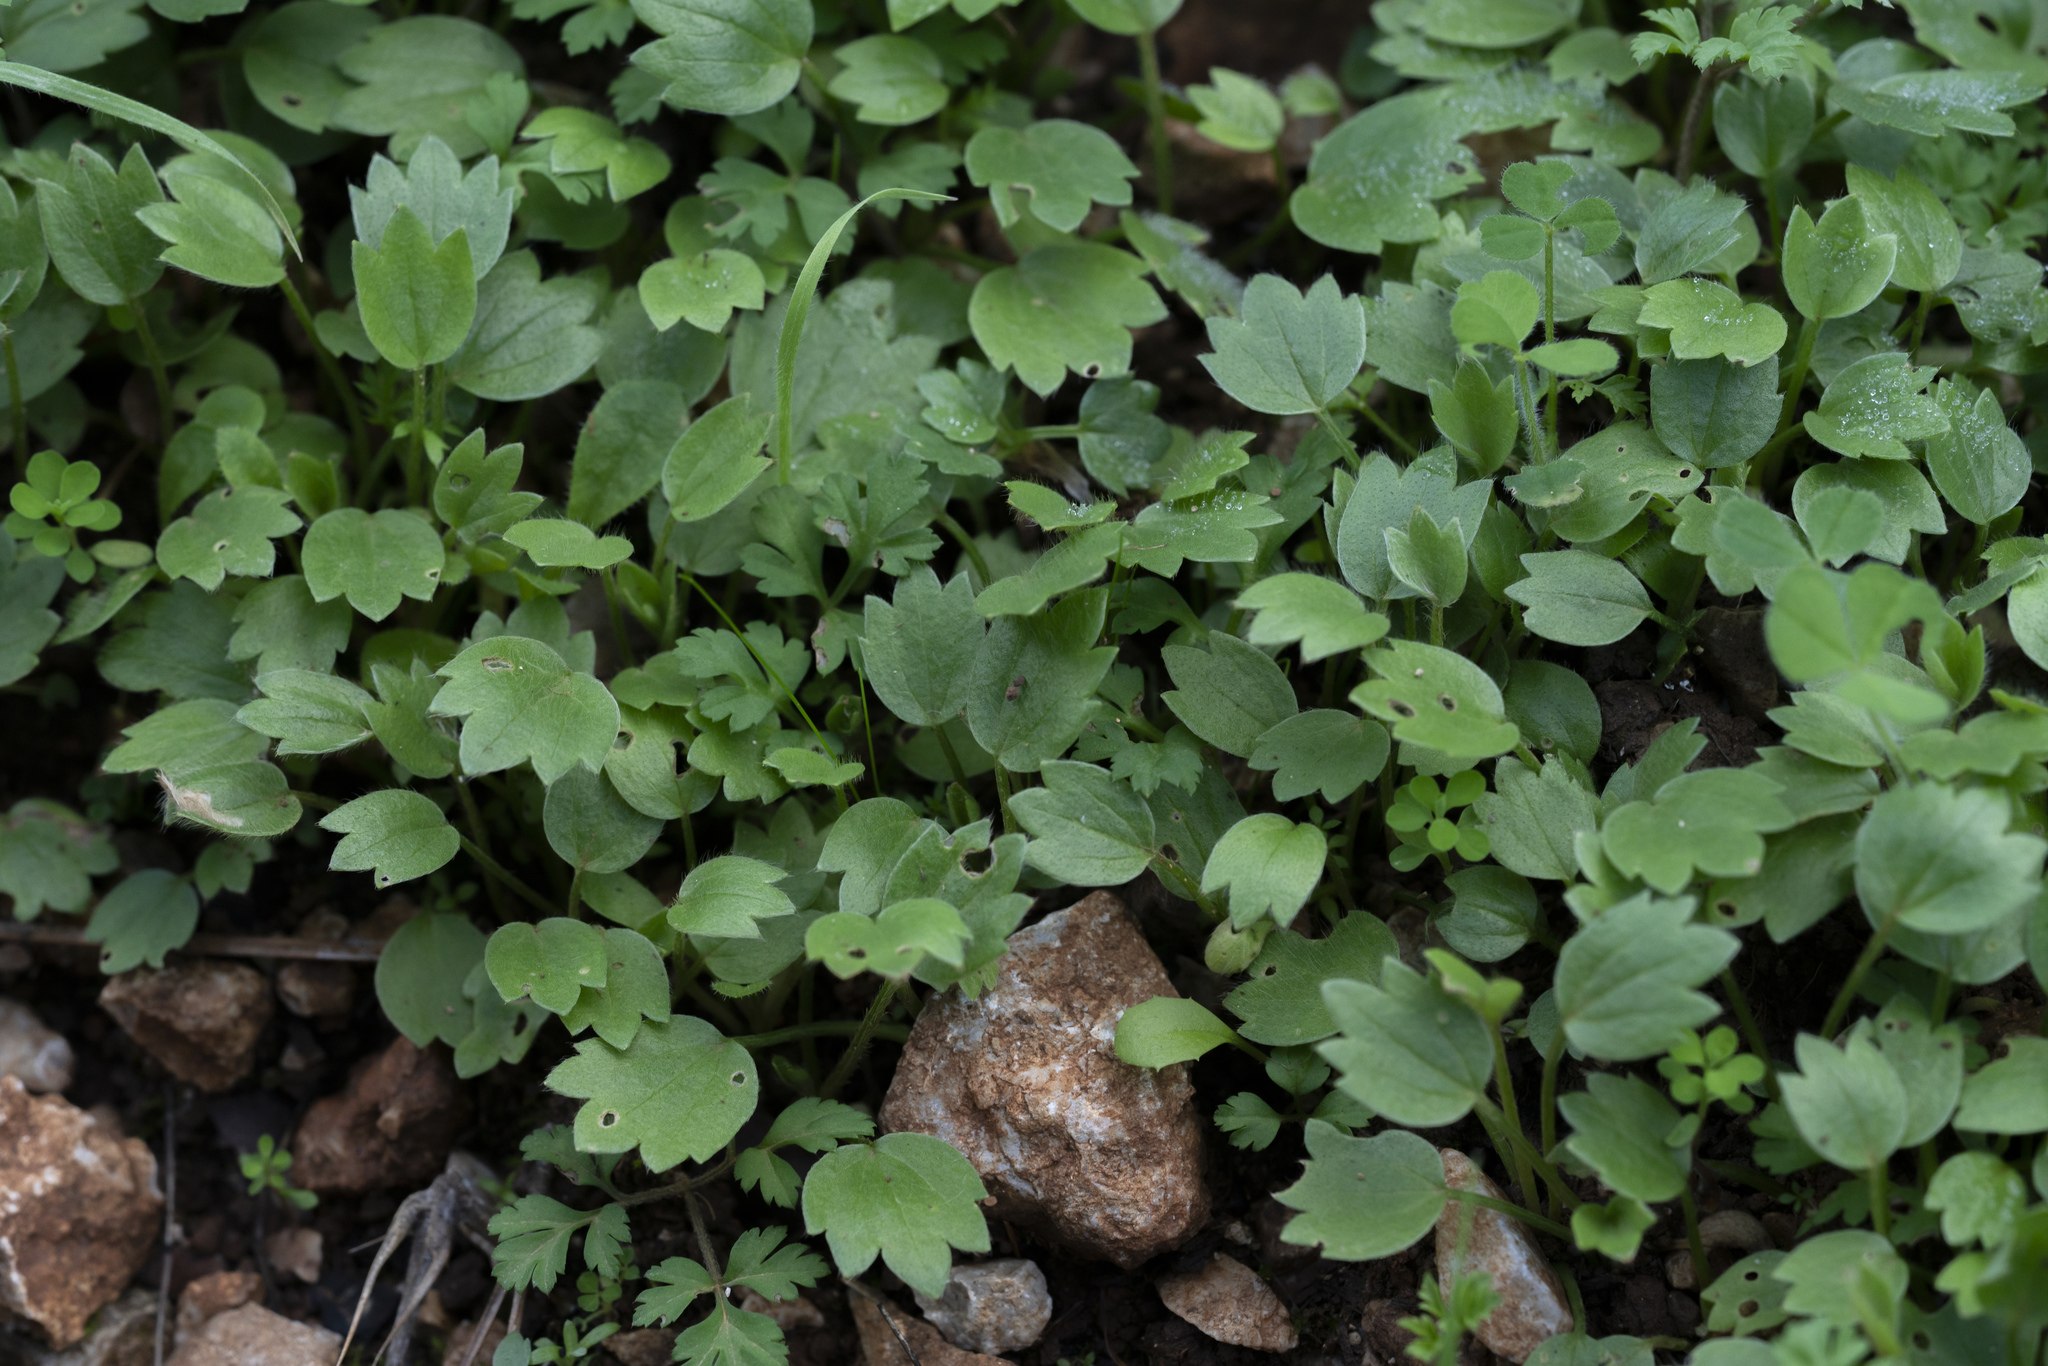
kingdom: Plantae
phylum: Tracheophyta
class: Magnoliopsida
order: Ranunculales
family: Ranunculaceae
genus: Ranunculus
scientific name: Ranunculus
